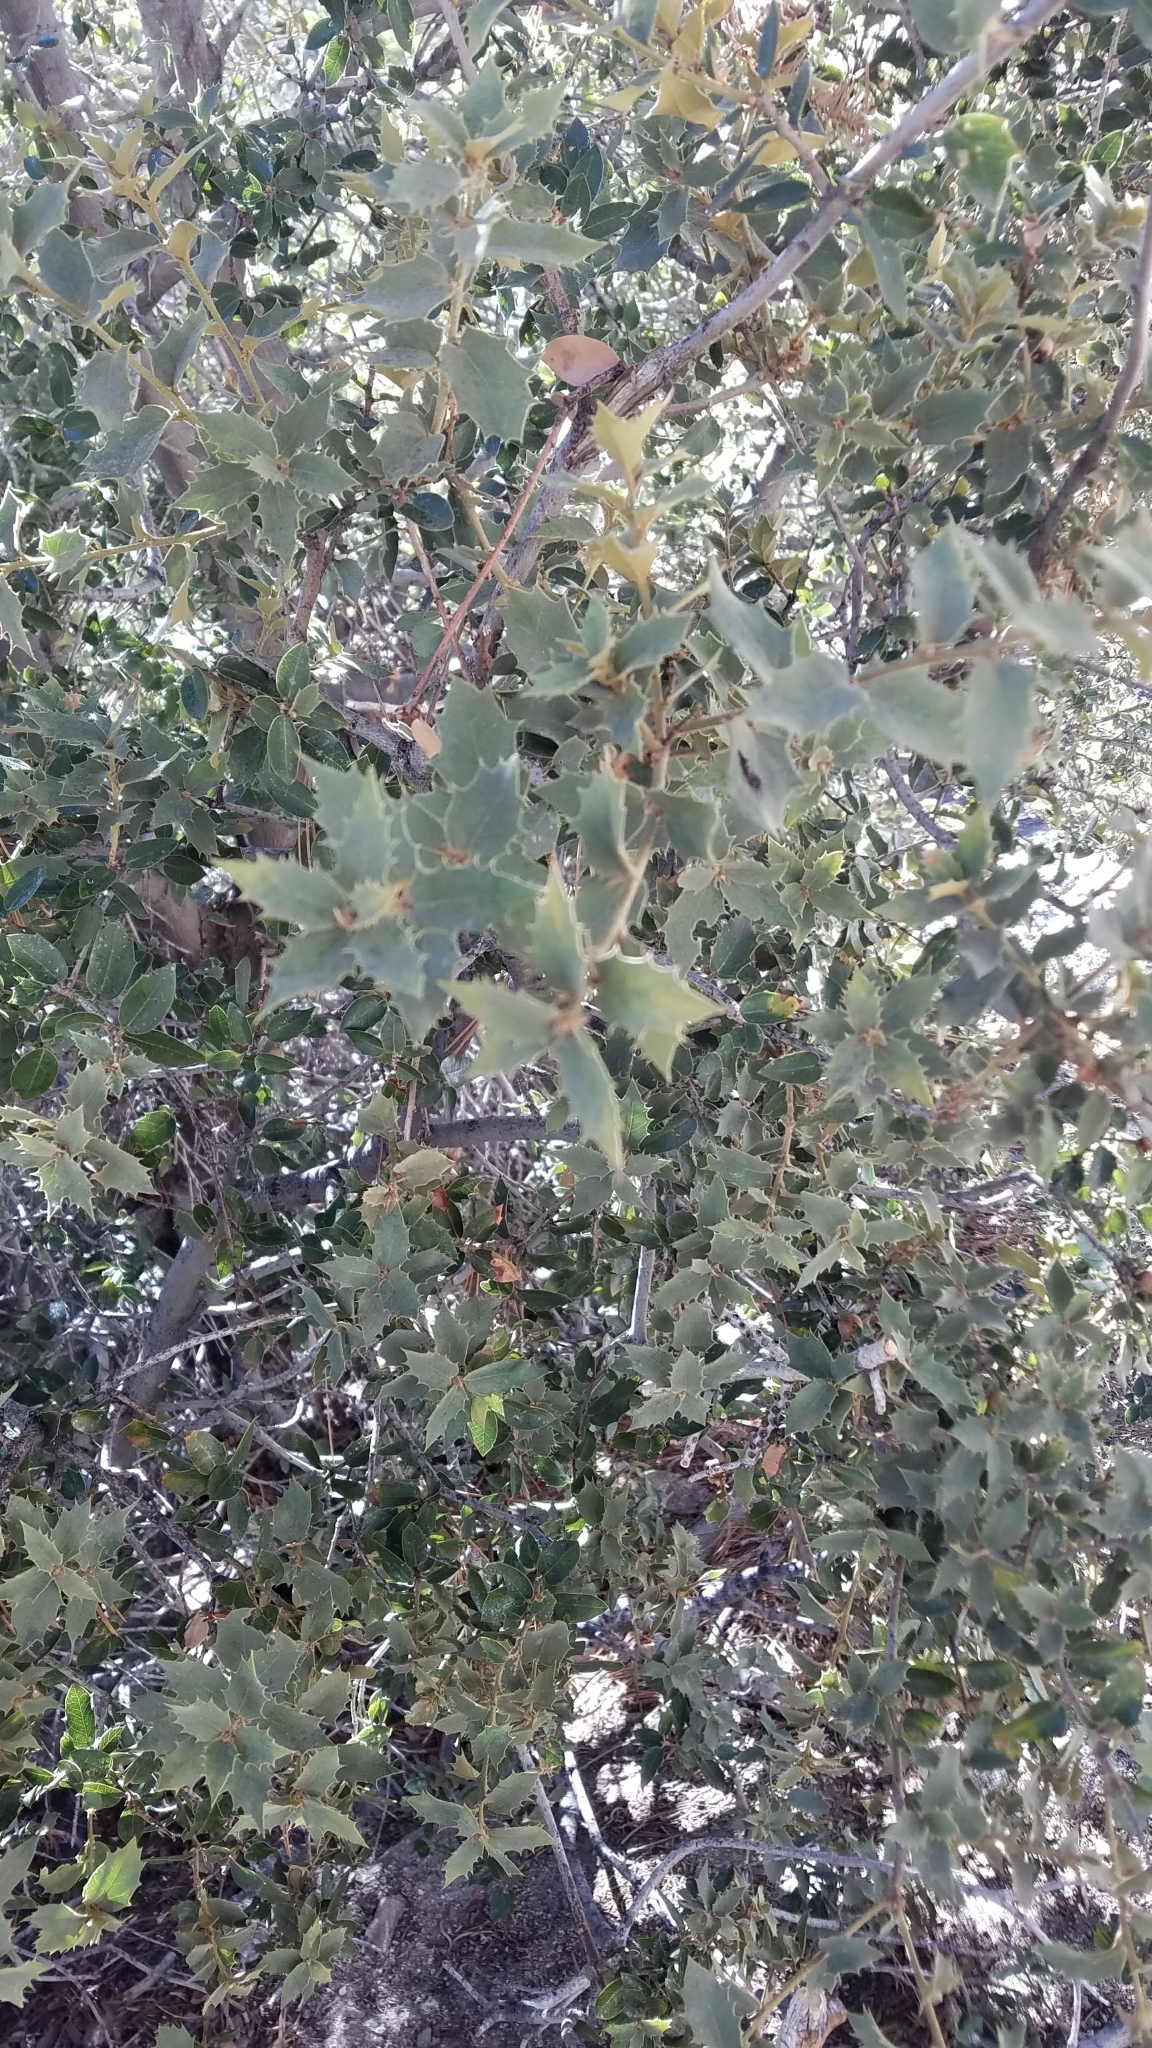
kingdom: Plantae
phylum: Tracheophyta
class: Magnoliopsida
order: Fagales
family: Fagaceae
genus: Quercus
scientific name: Quercus chrysolepis
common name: Canyon live oak
